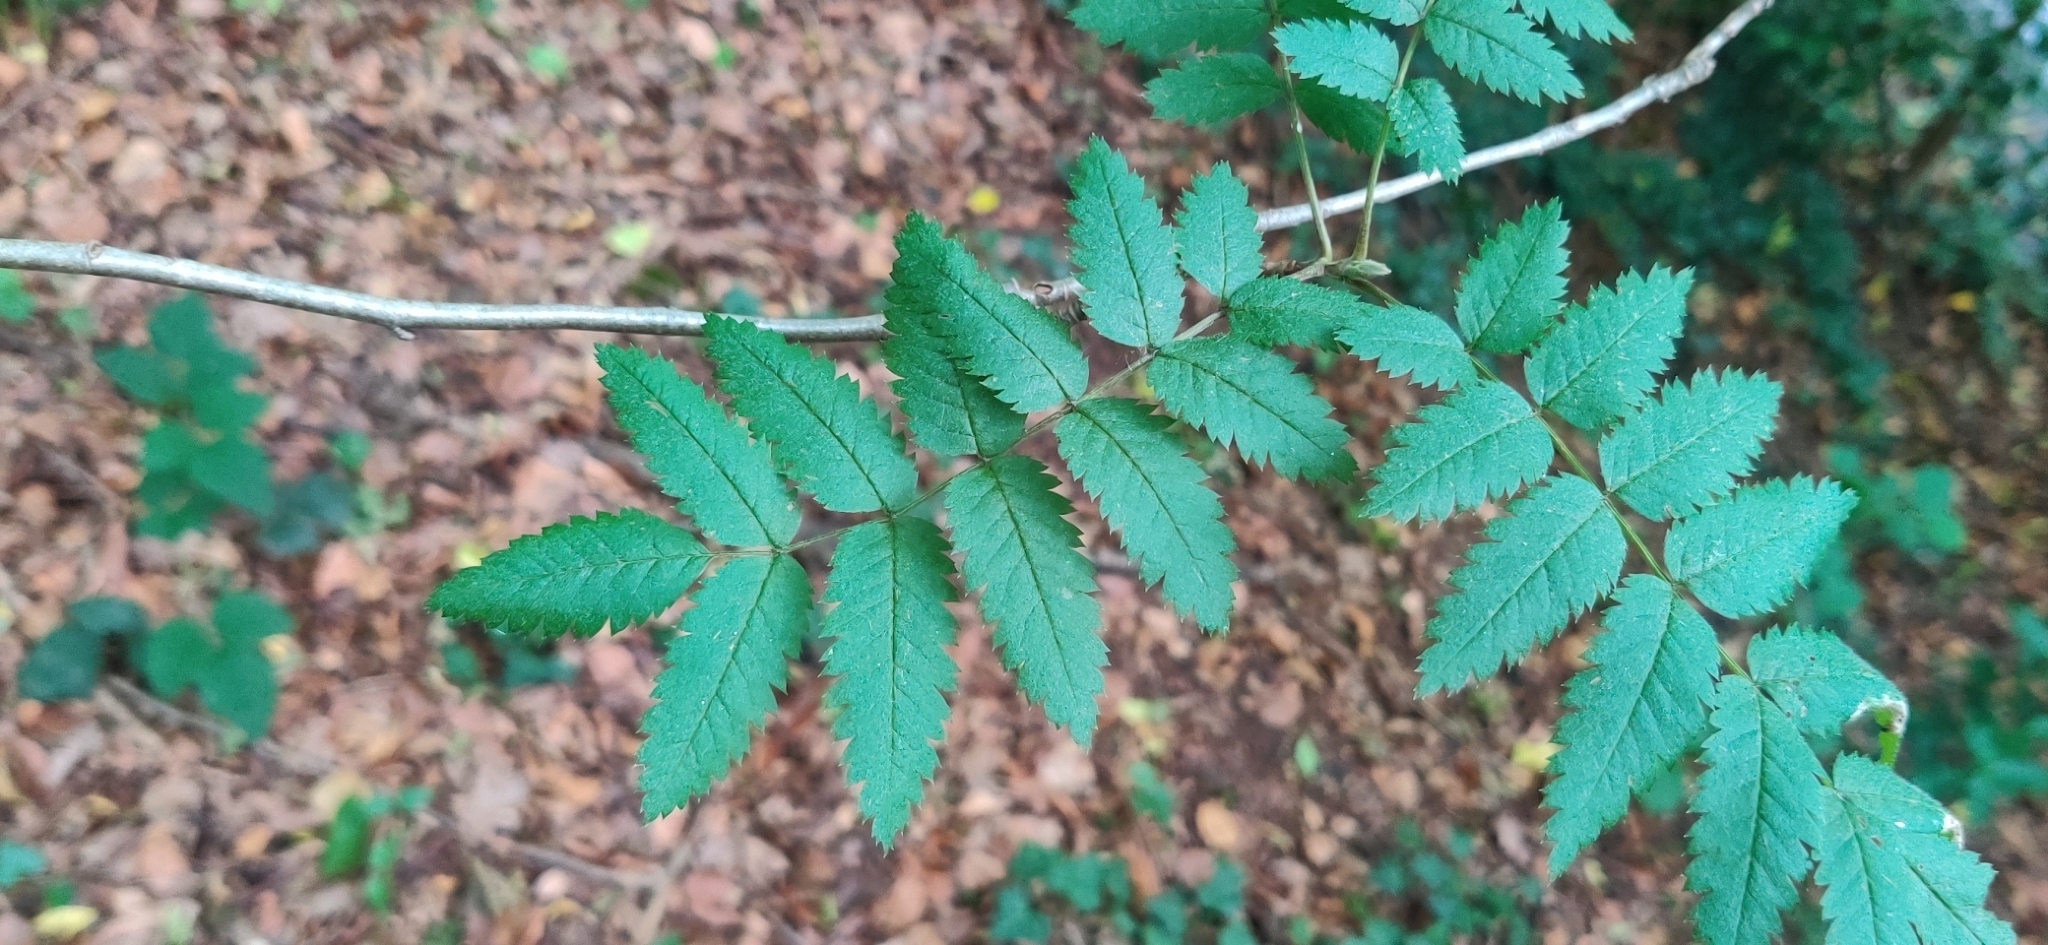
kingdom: Plantae
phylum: Tracheophyta
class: Magnoliopsida
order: Rosales
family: Rosaceae
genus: Sorbus
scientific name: Sorbus aucuparia
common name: Rowan
